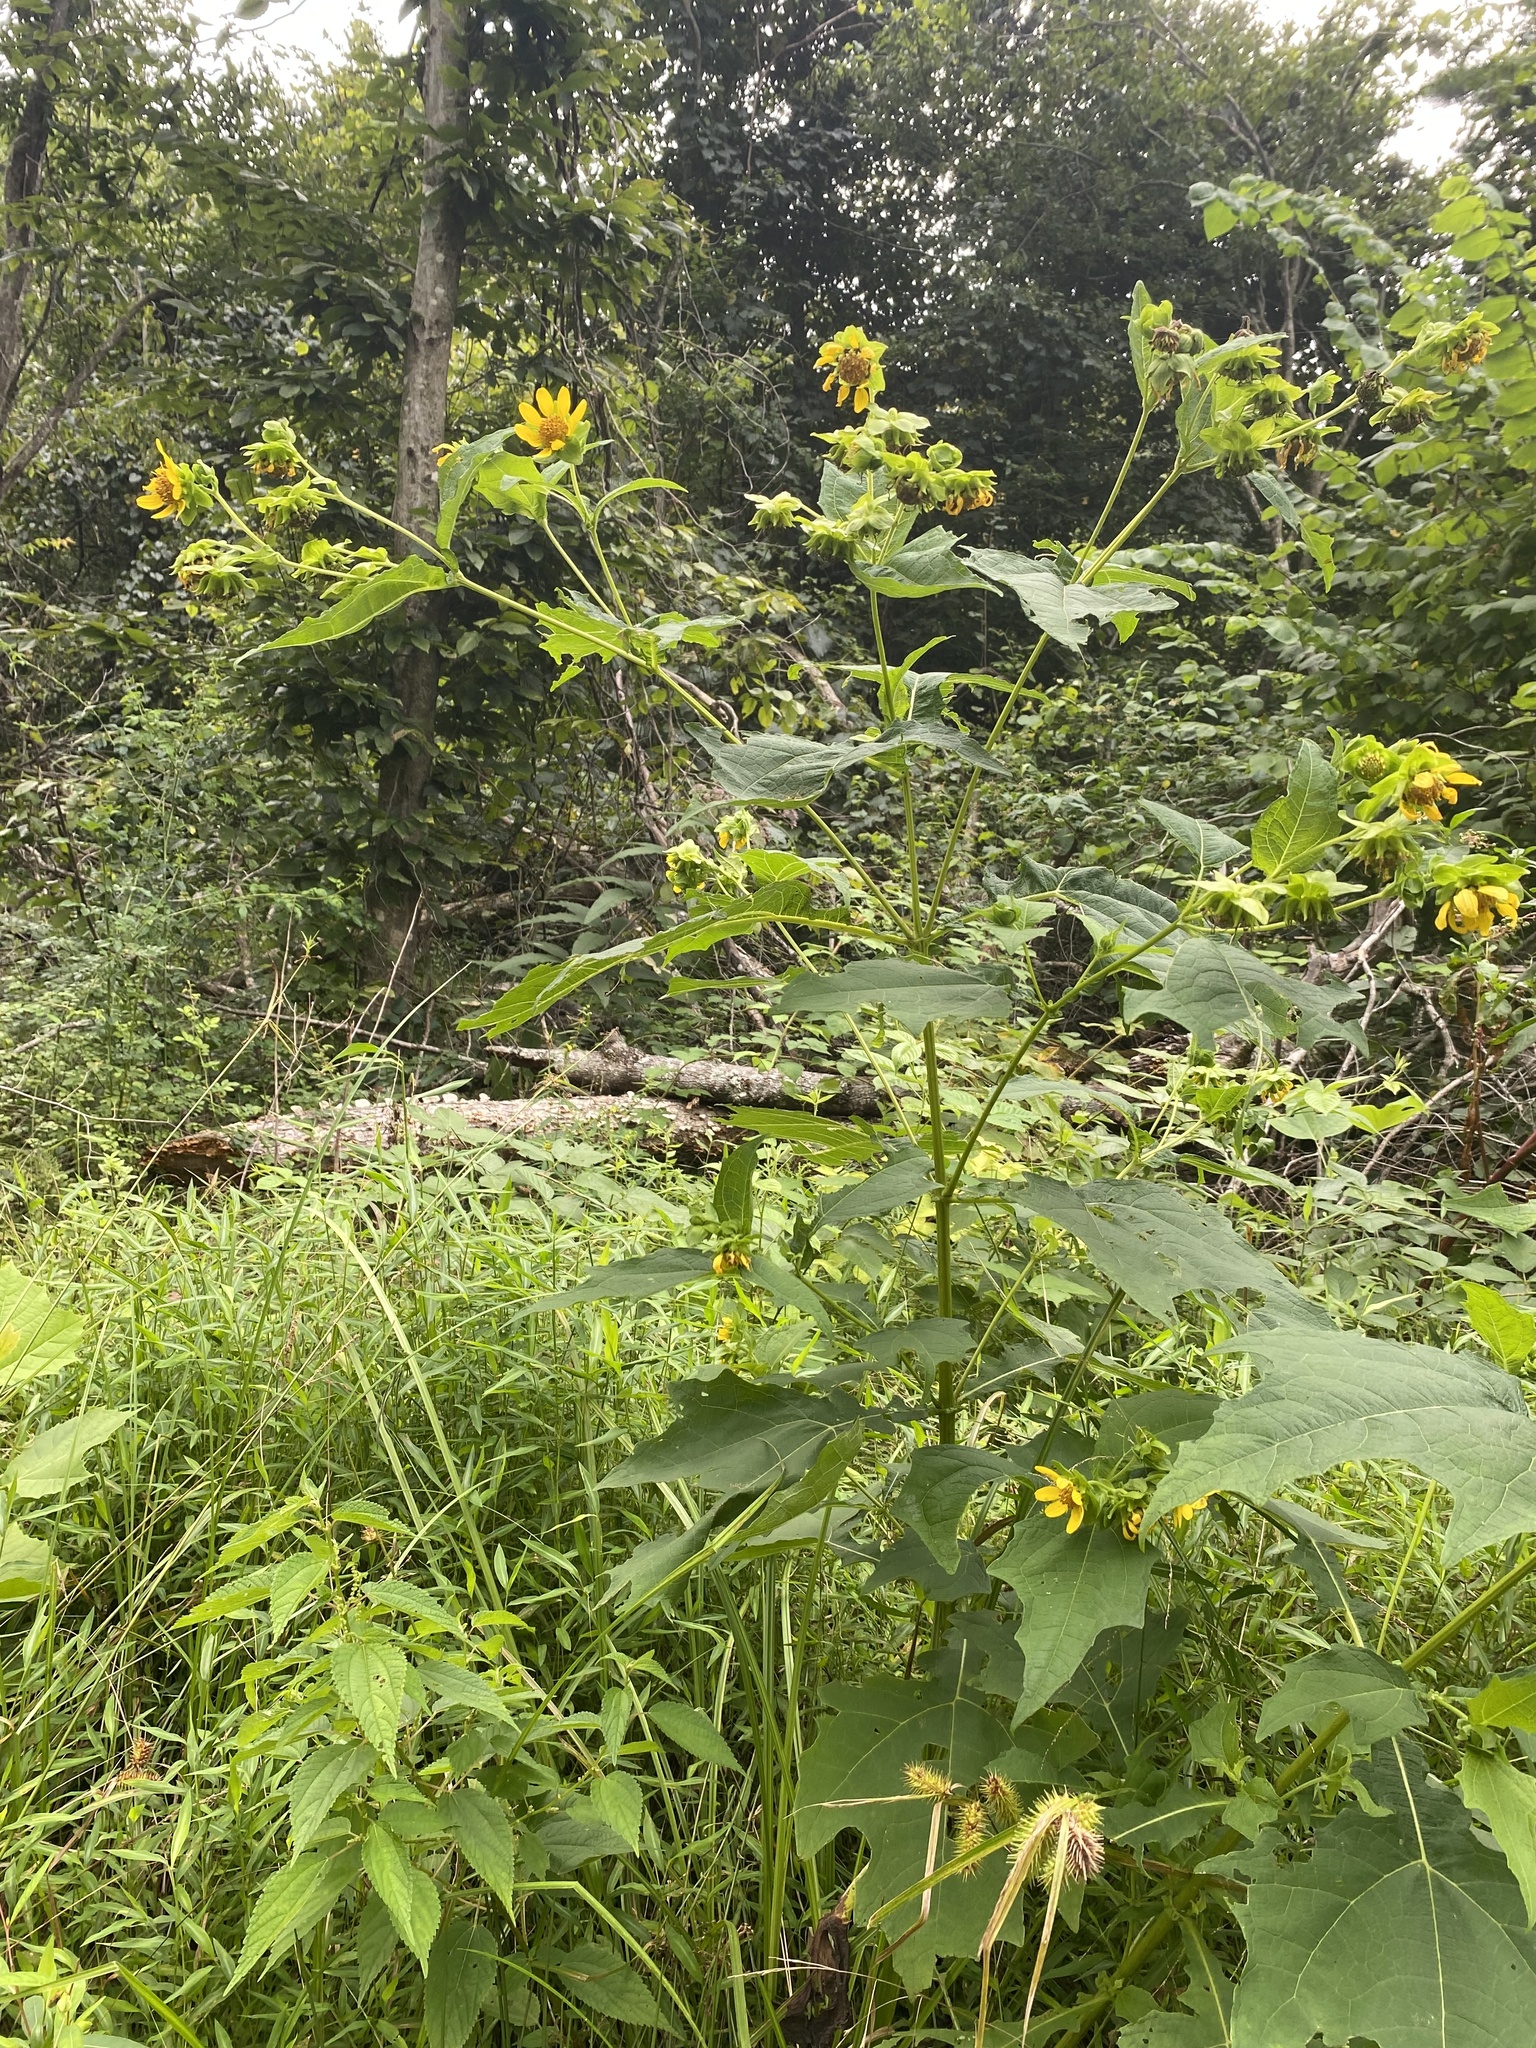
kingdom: Plantae
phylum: Tracheophyta
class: Magnoliopsida
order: Asterales
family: Asteraceae
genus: Smallanthus
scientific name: Smallanthus uvedalia
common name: Bear's-foot
